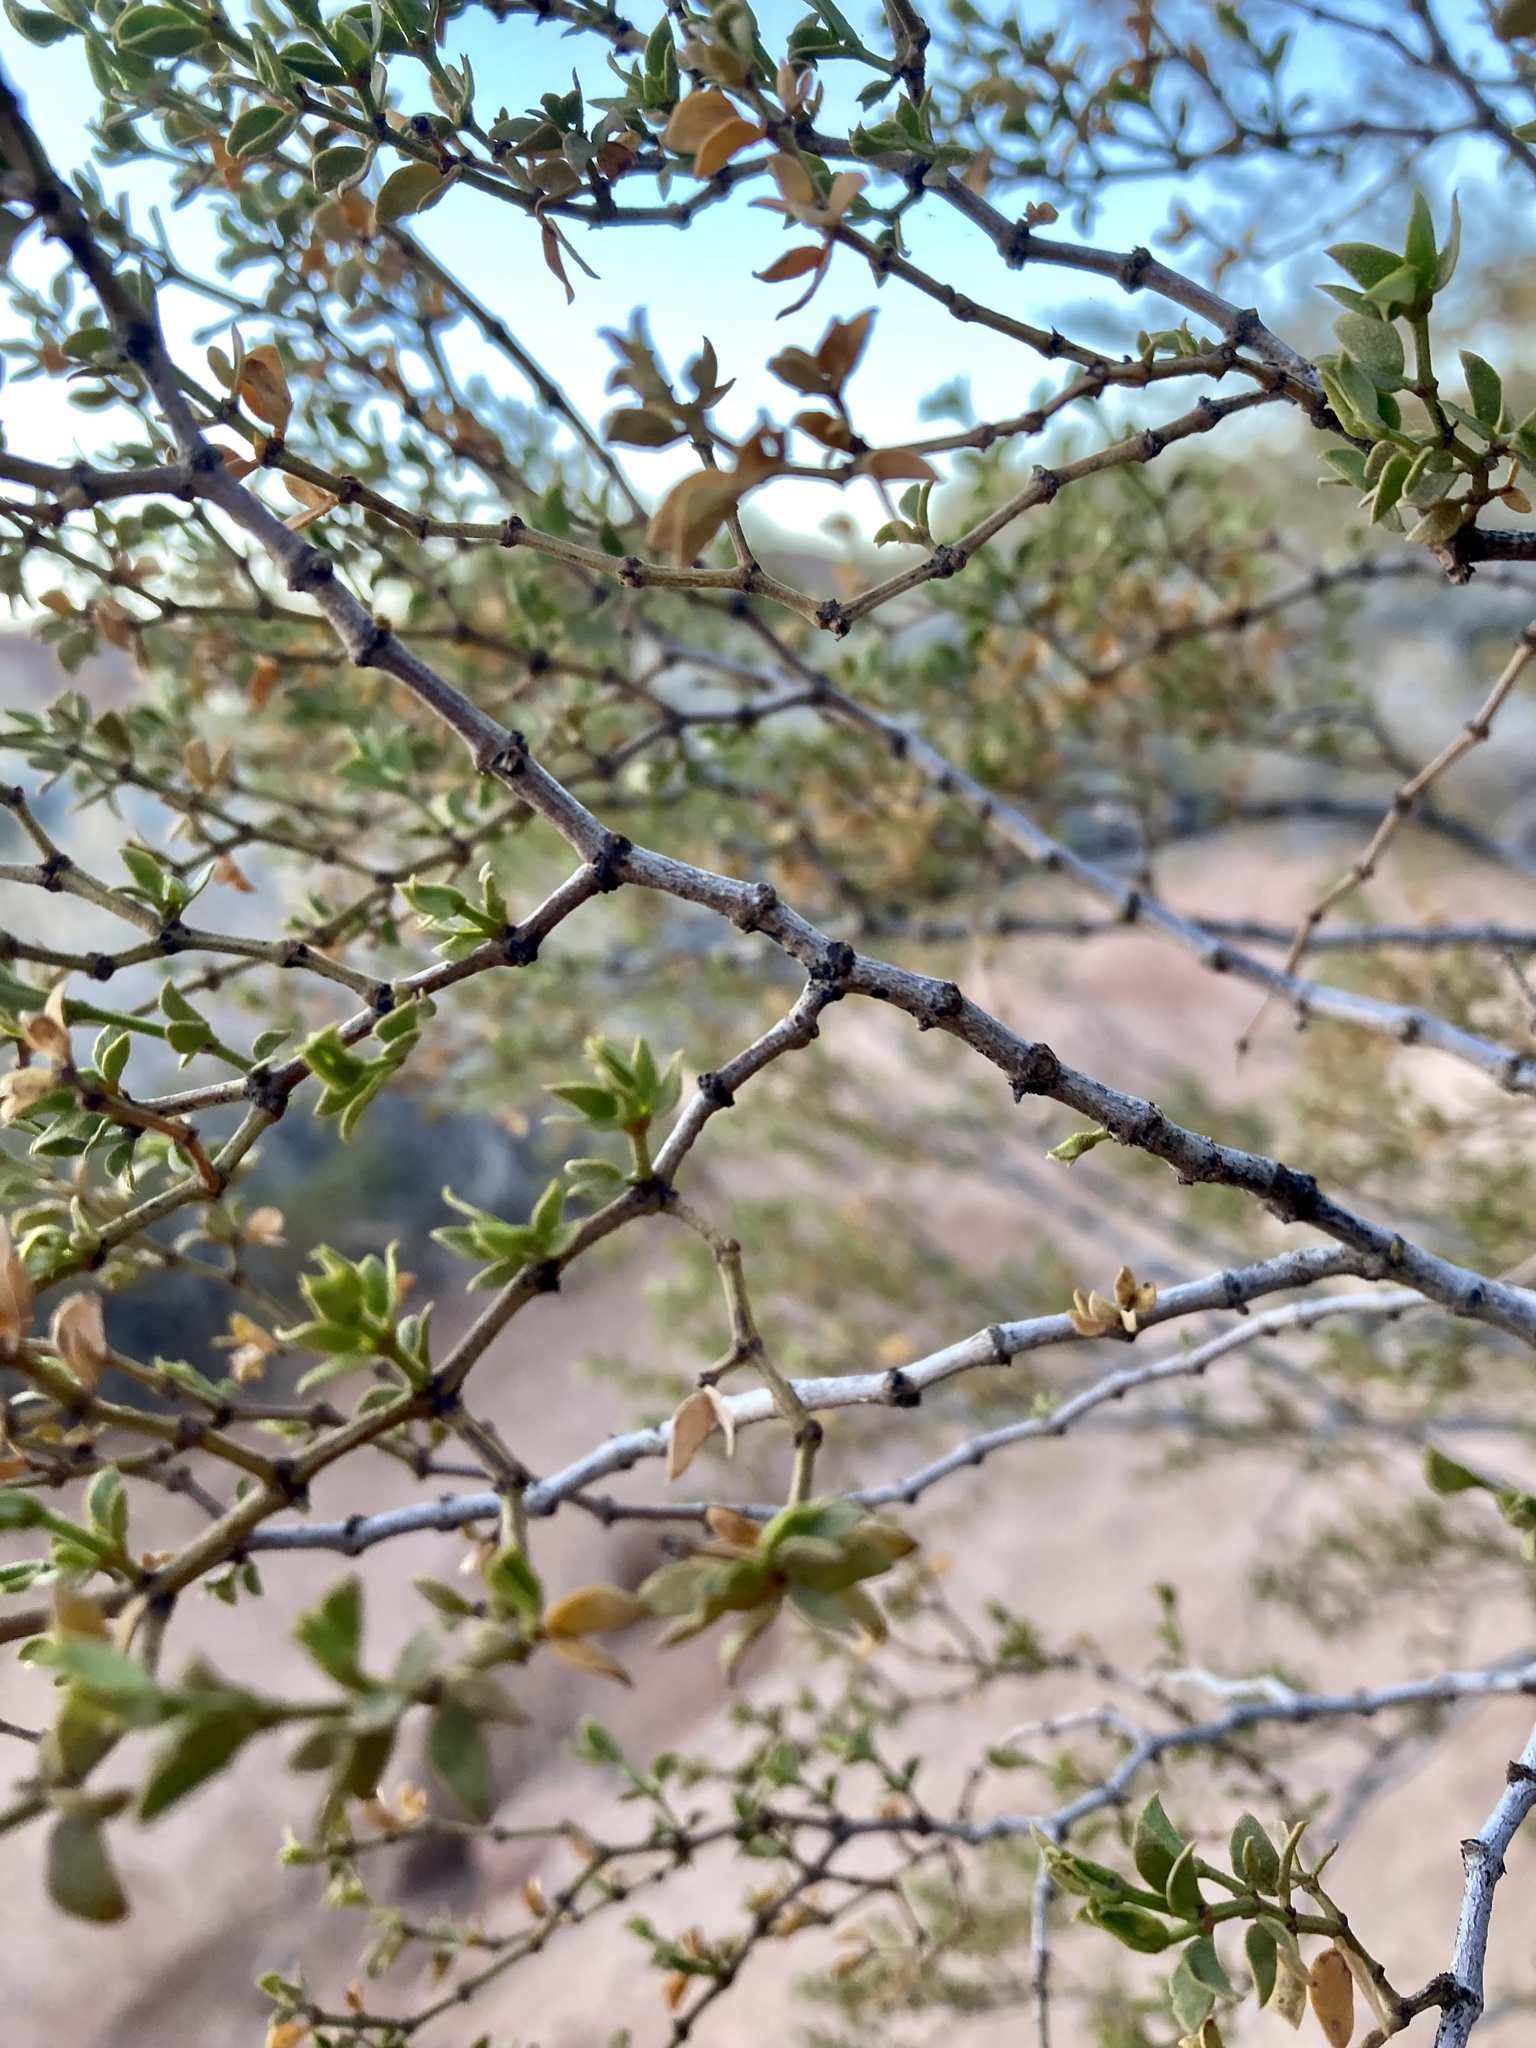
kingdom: Plantae
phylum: Tracheophyta
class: Magnoliopsida
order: Zygophyllales
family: Zygophyllaceae
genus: Larrea
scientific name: Larrea tridentata
